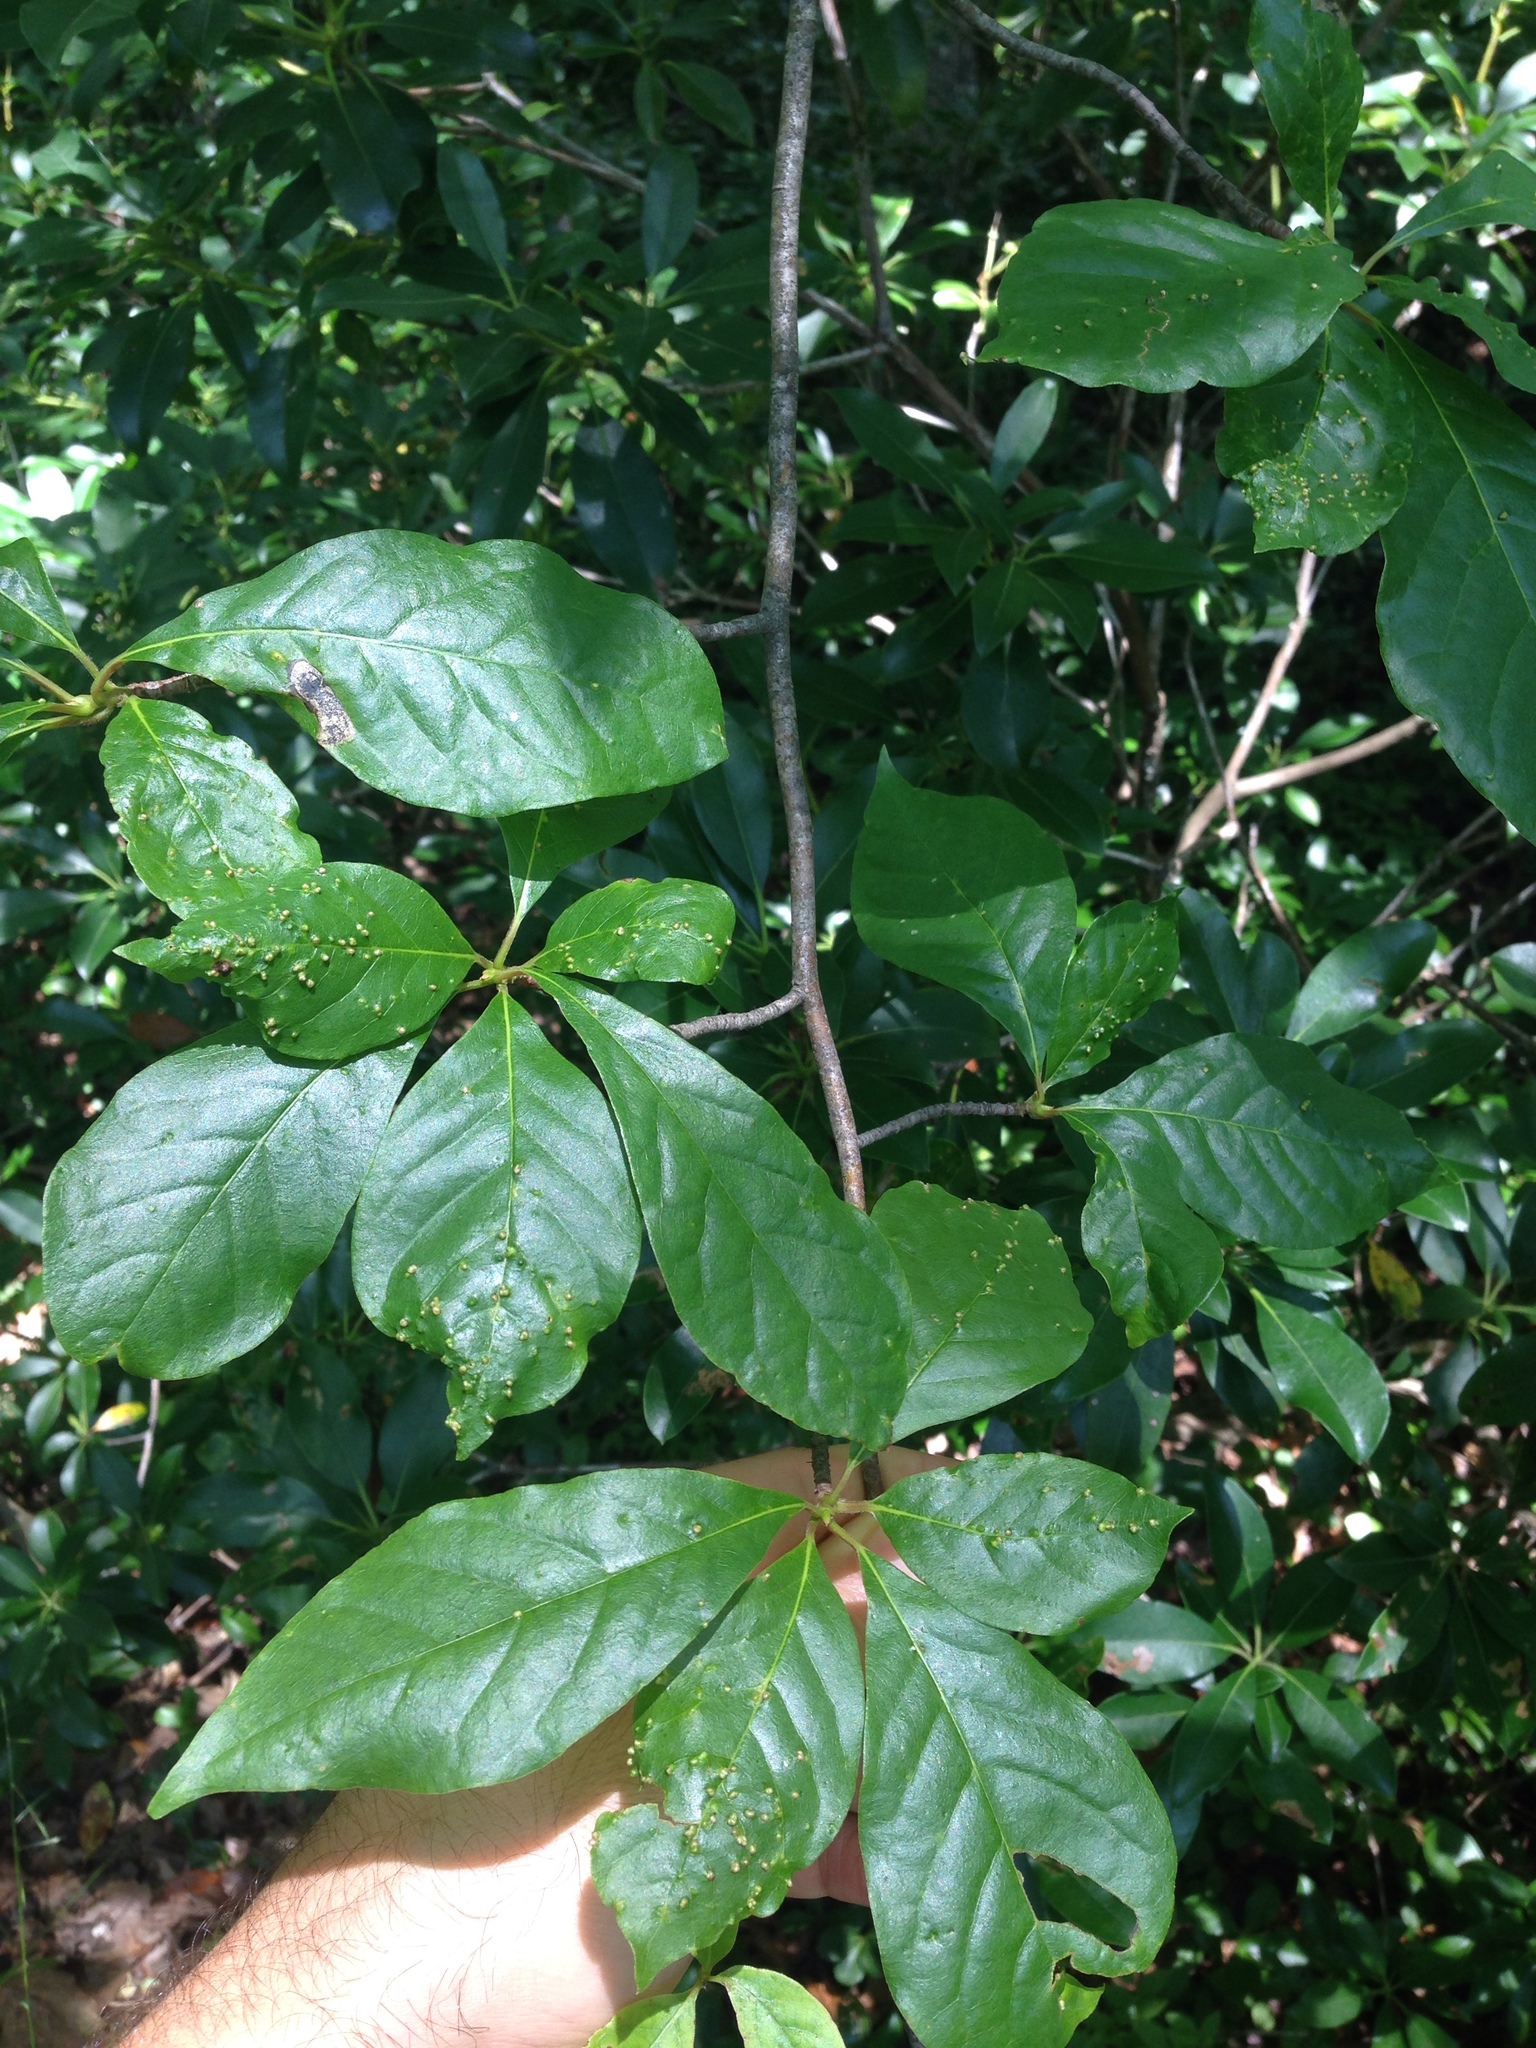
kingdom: Plantae
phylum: Tracheophyta
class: Magnoliopsida
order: Cornales
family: Nyssaceae
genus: Nyssa
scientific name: Nyssa sylvatica
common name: Black tupelo
